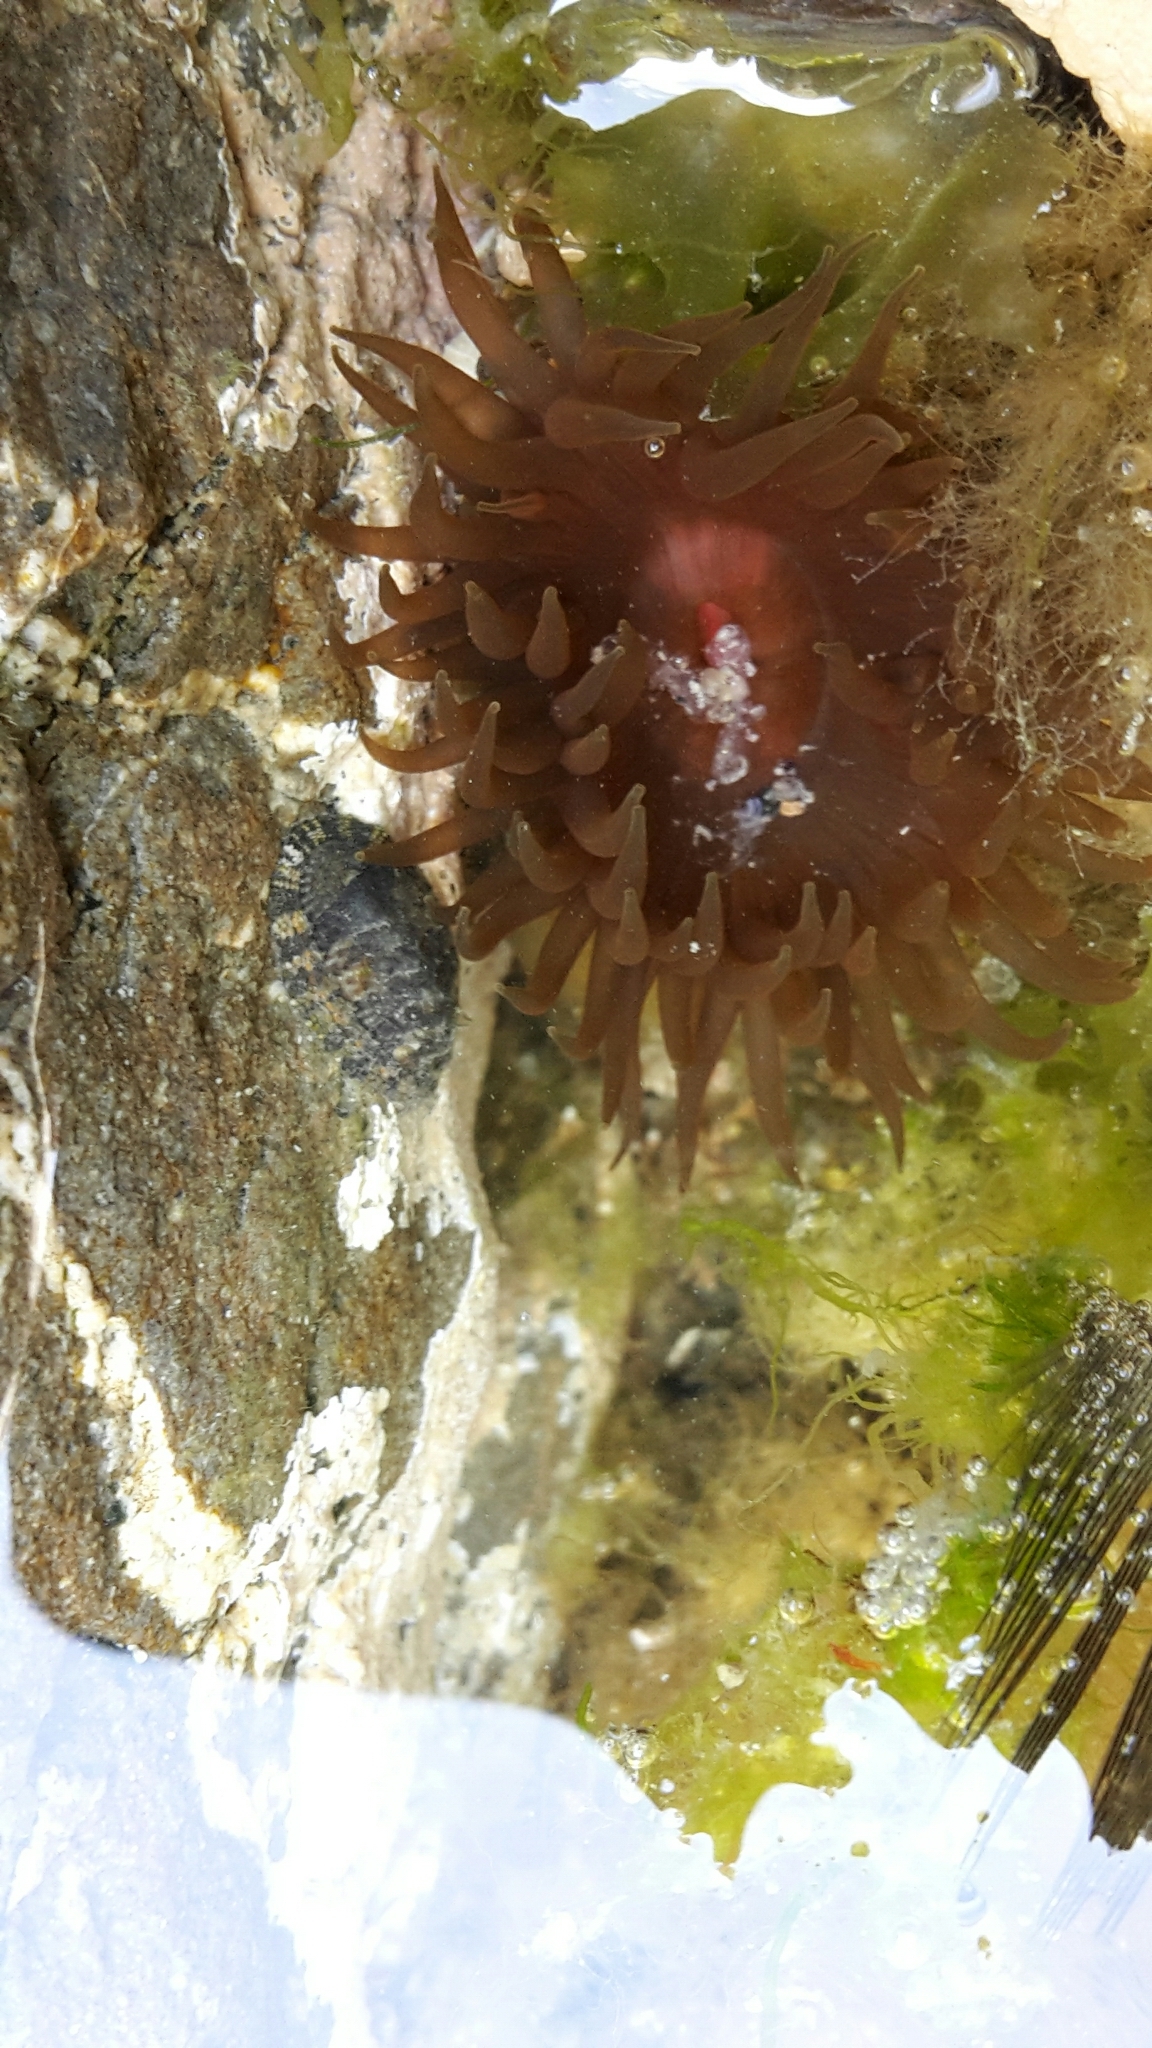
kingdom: Animalia
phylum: Cnidaria
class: Anthozoa
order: Actiniaria
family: Actiniidae
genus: Isactinia
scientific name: Isactinia olivacea
